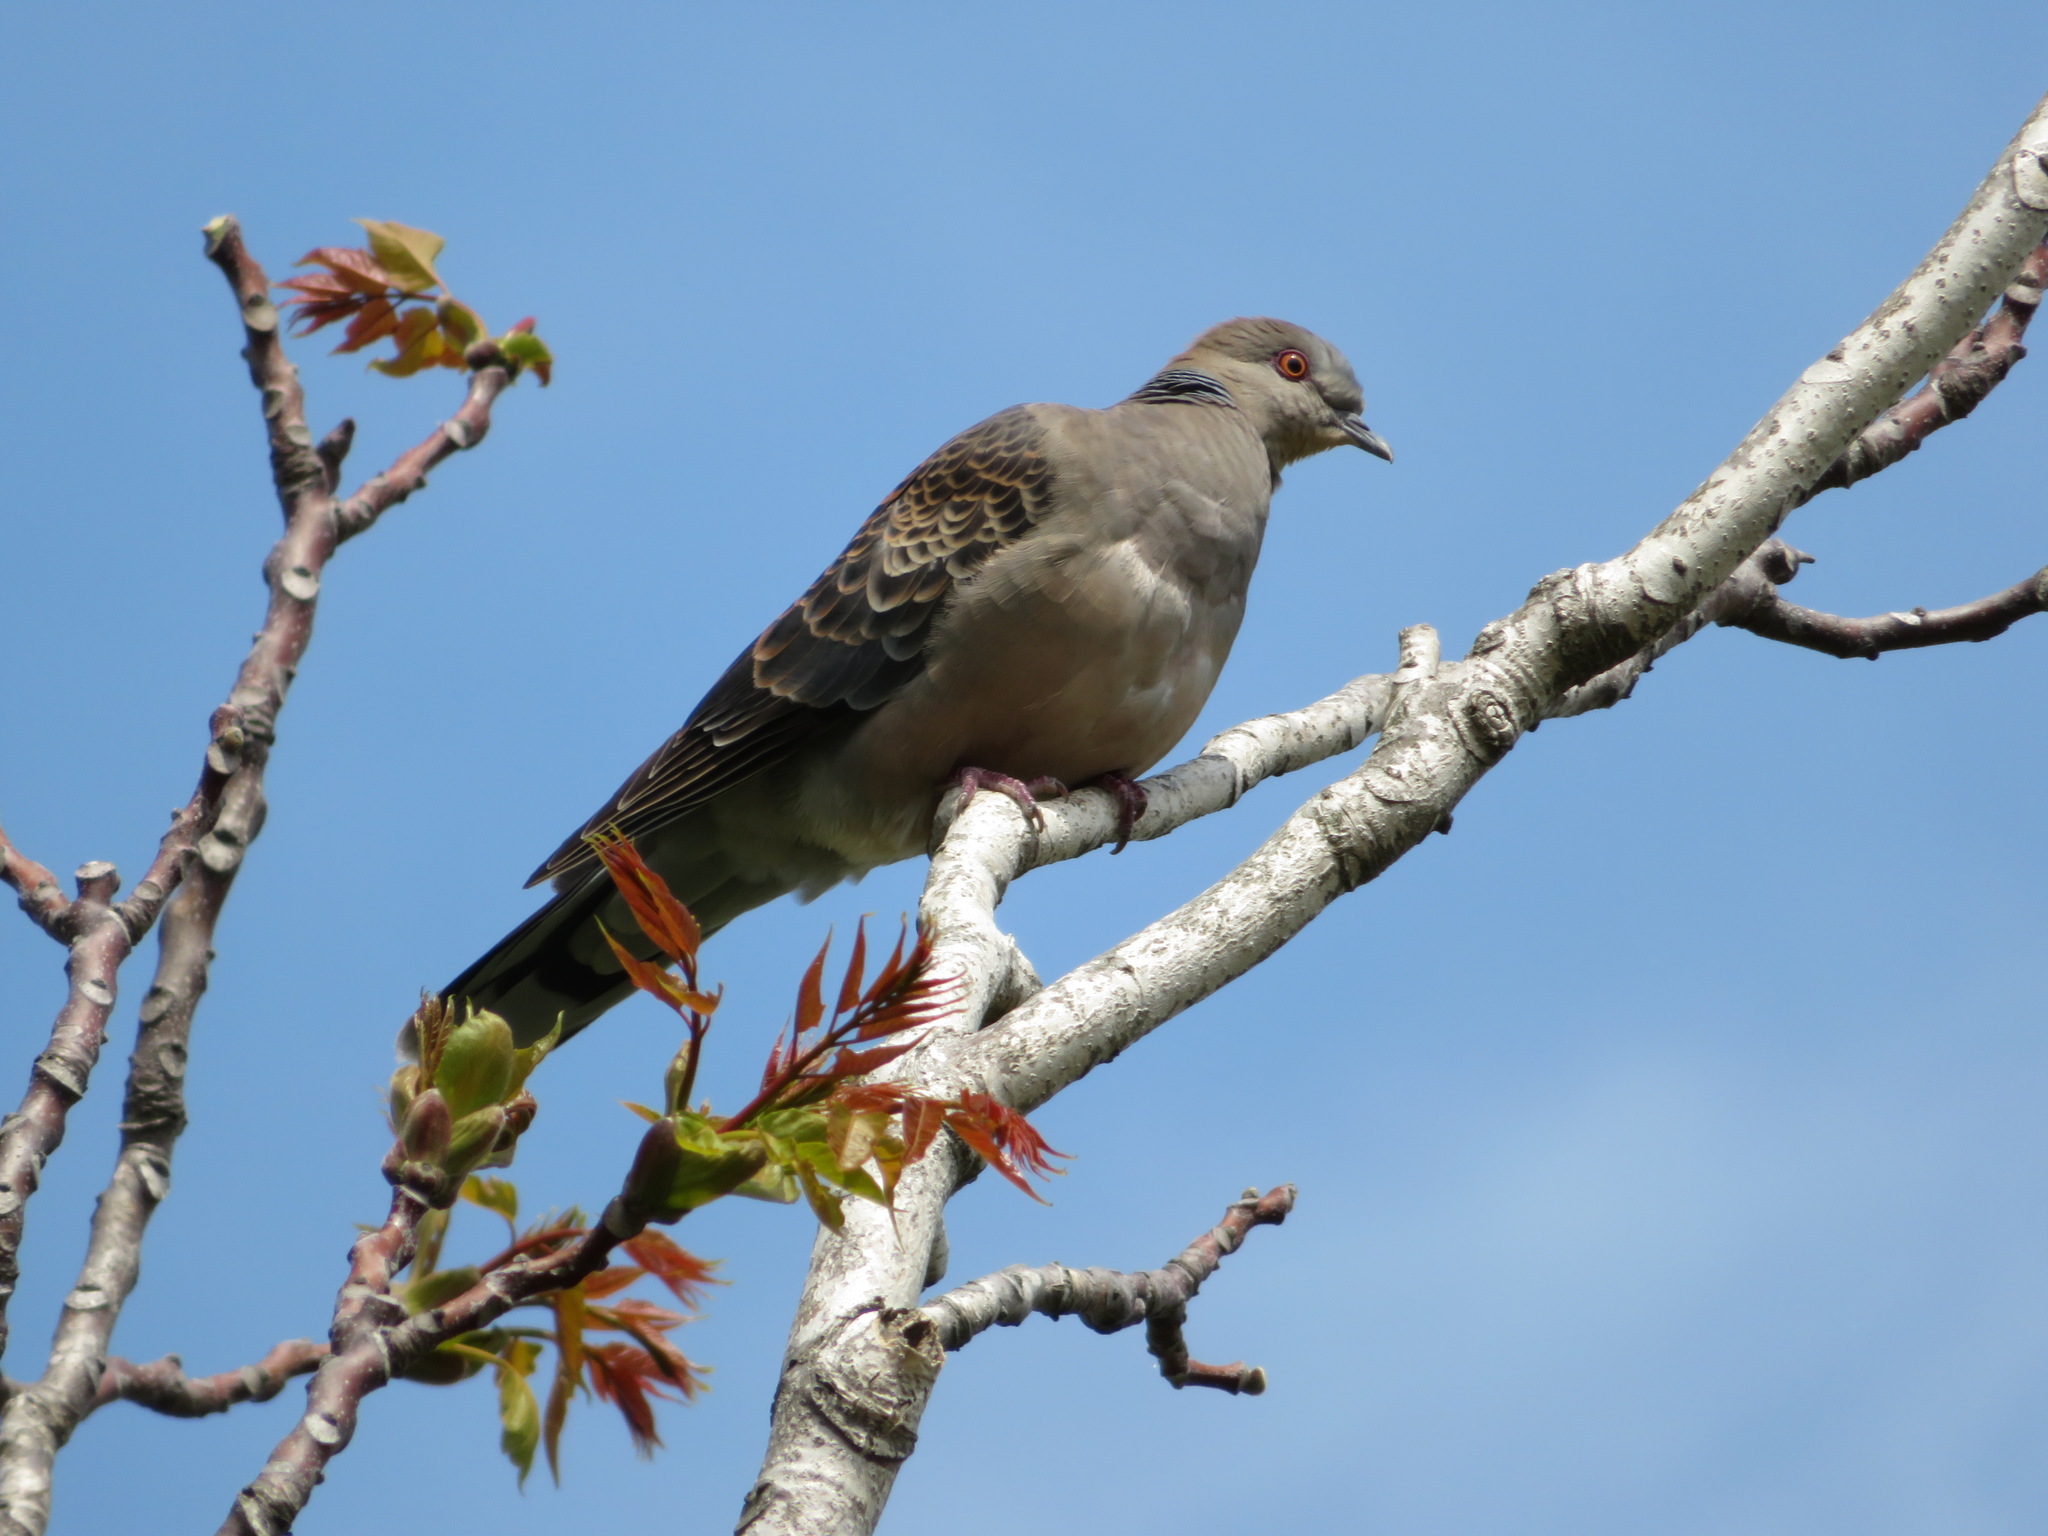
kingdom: Animalia
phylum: Chordata
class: Aves
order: Columbiformes
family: Columbidae
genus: Streptopelia
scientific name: Streptopelia orientalis
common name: Oriental turtle dove
